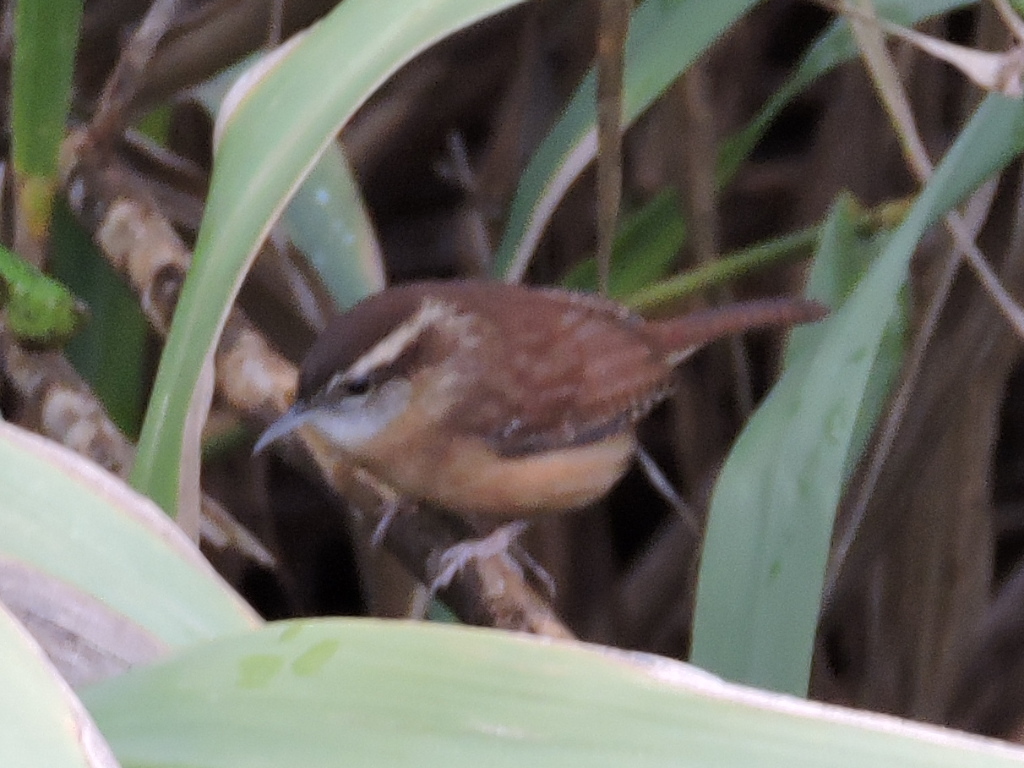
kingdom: Animalia
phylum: Chordata
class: Aves
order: Passeriformes
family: Troglodytidae
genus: Thryothorus
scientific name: Thryothorus ludovicianus
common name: Carolina wren
